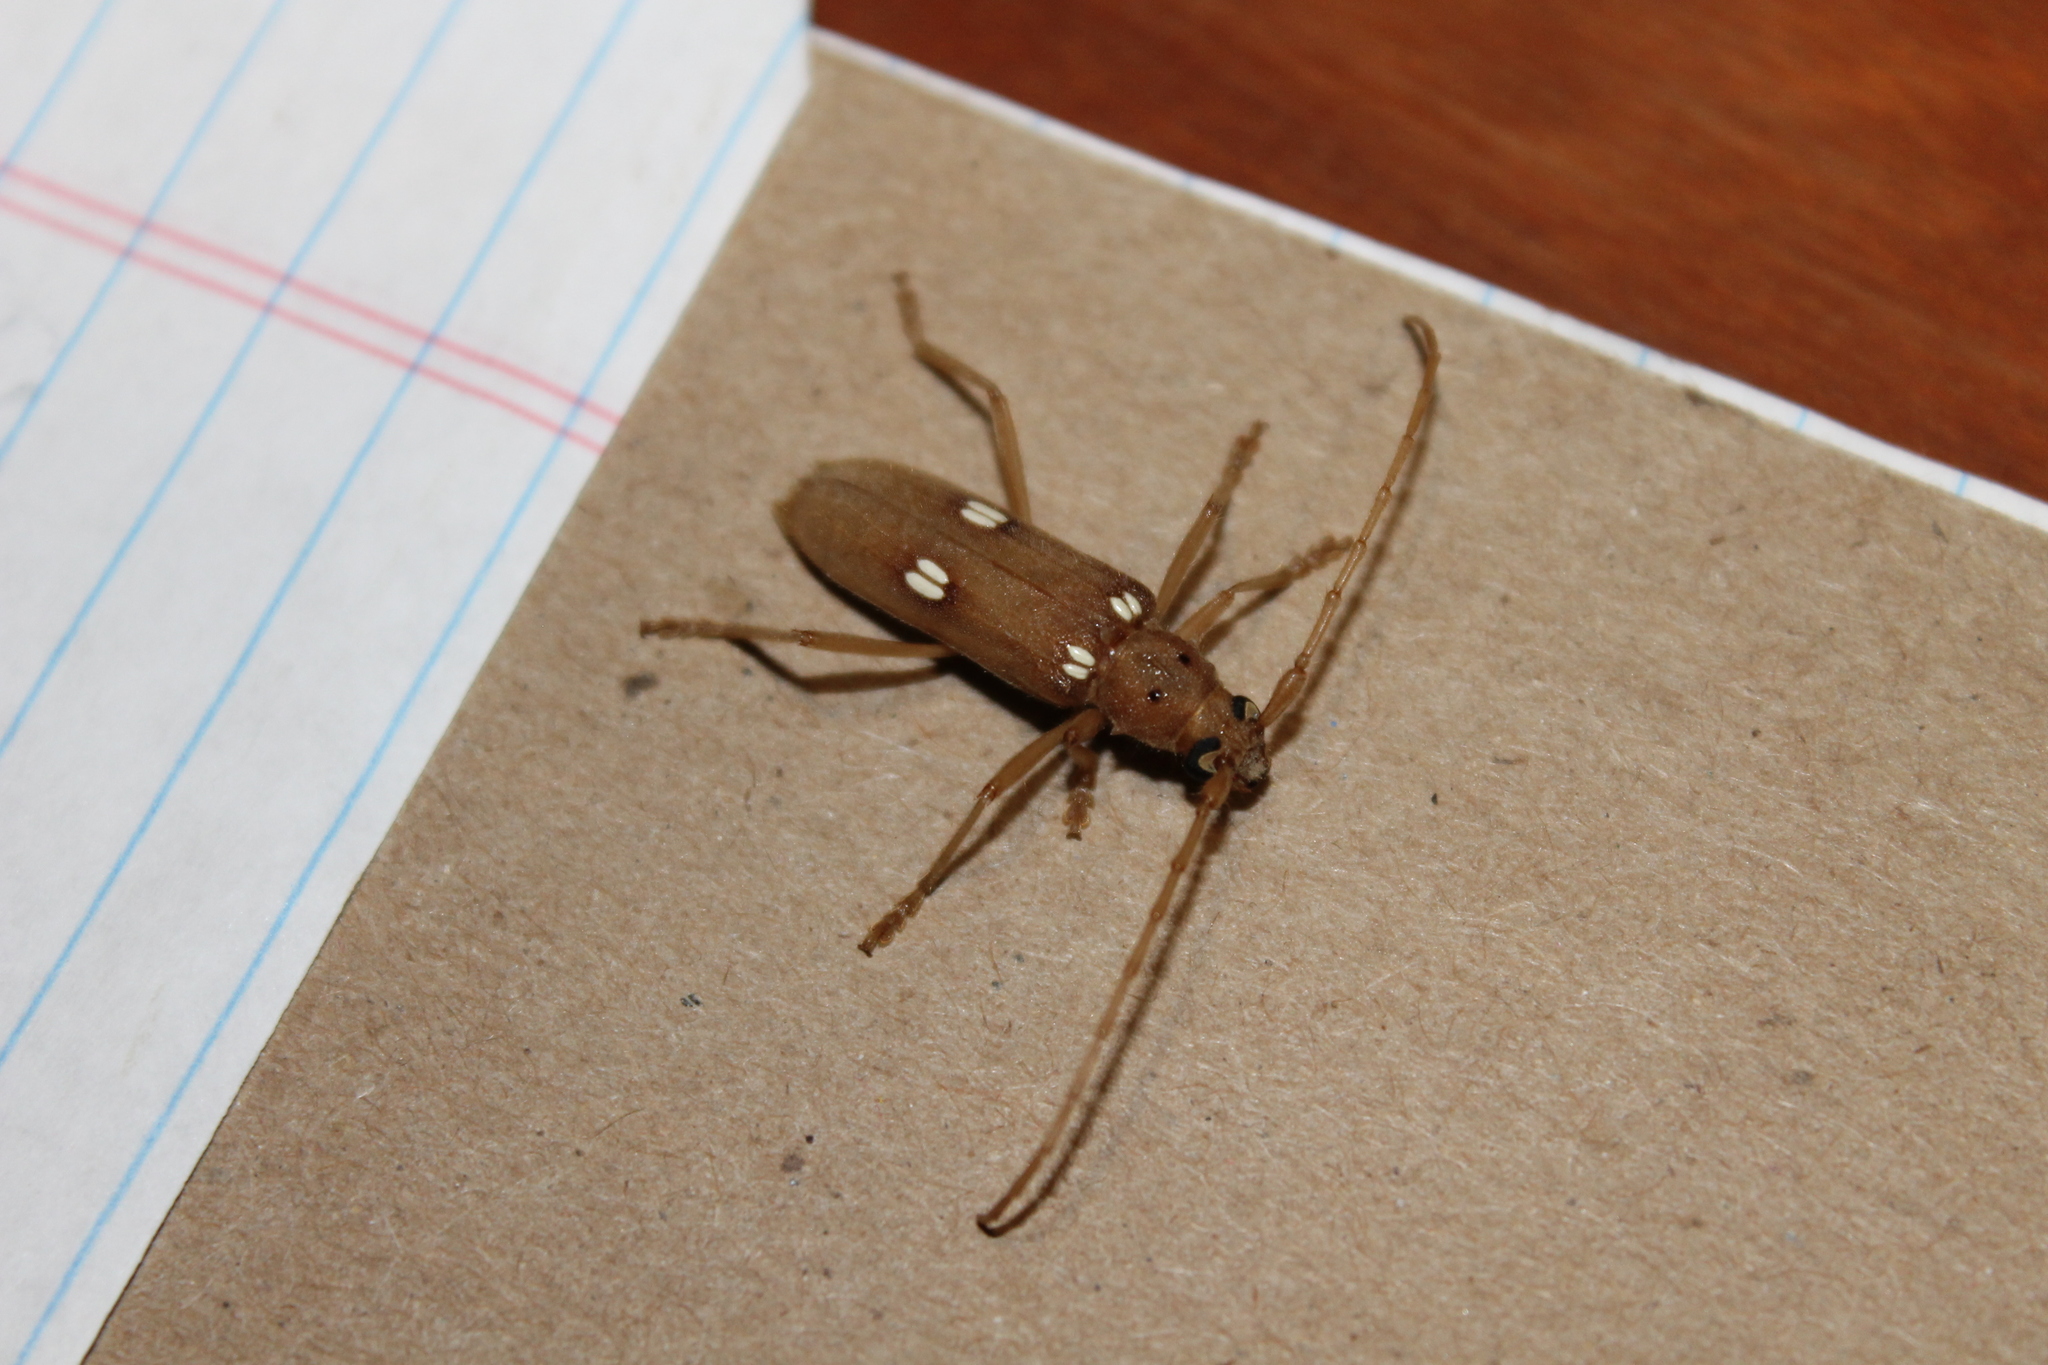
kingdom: Animalia
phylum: Arthropoda
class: Insecta
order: Coleoptera
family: Cerambycidae
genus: Eburia
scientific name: Eburia quadrigeminata
